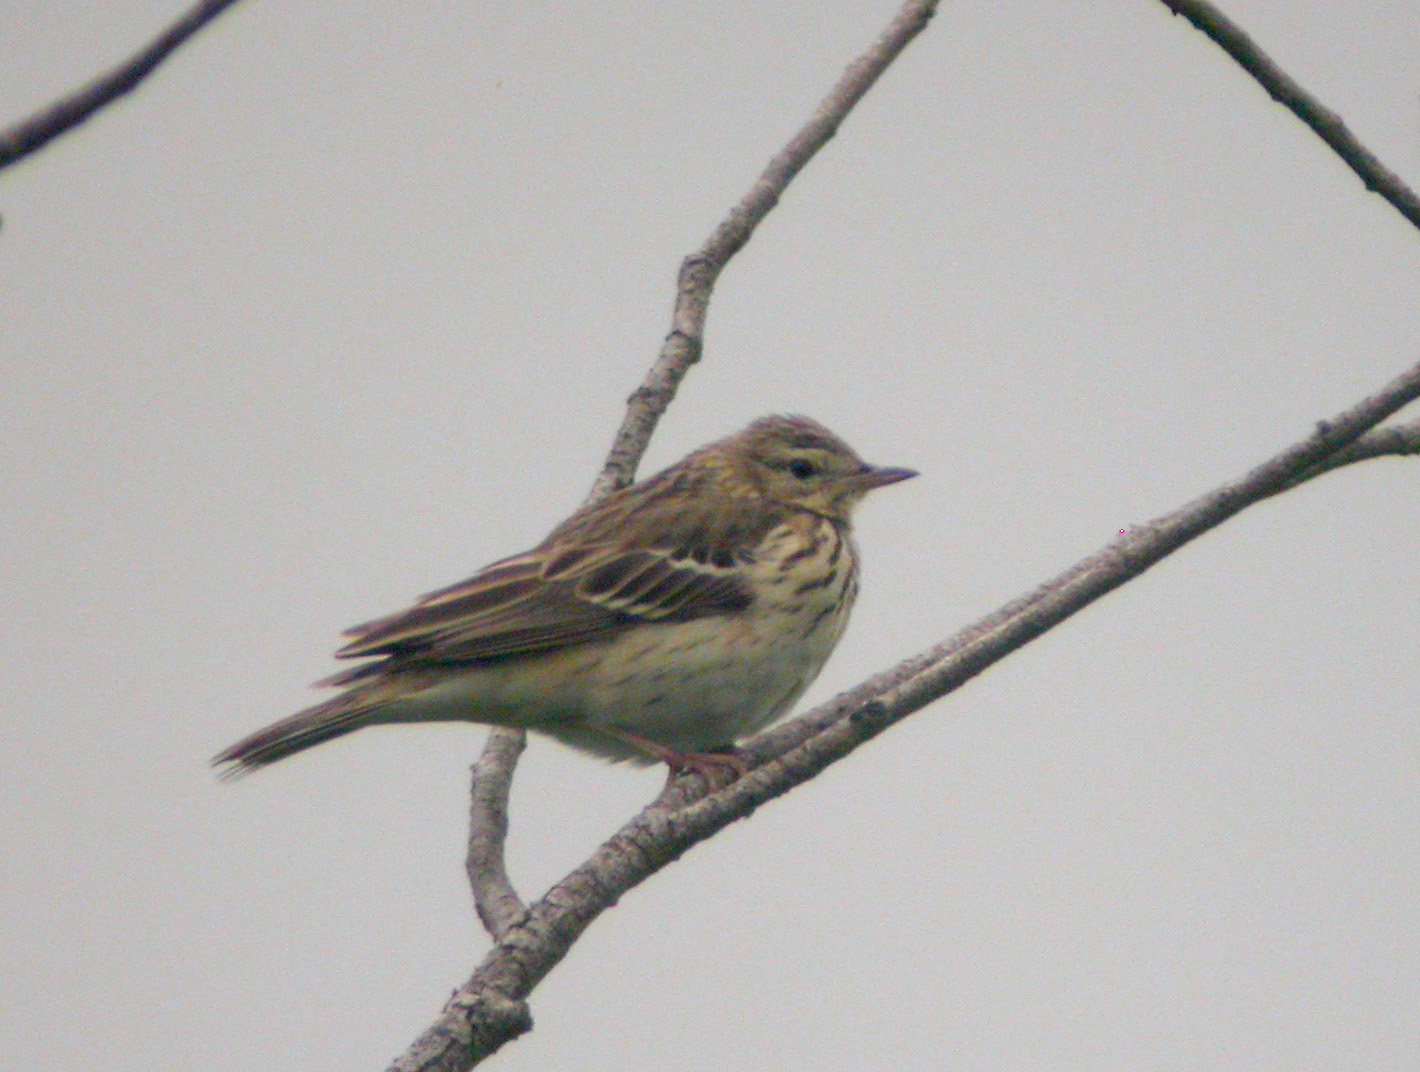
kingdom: Animalia
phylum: Chordata
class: Aves
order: Passeriformes
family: Motacillidae
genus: Anthus
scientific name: Anthus trivialis
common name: Tree pipit
